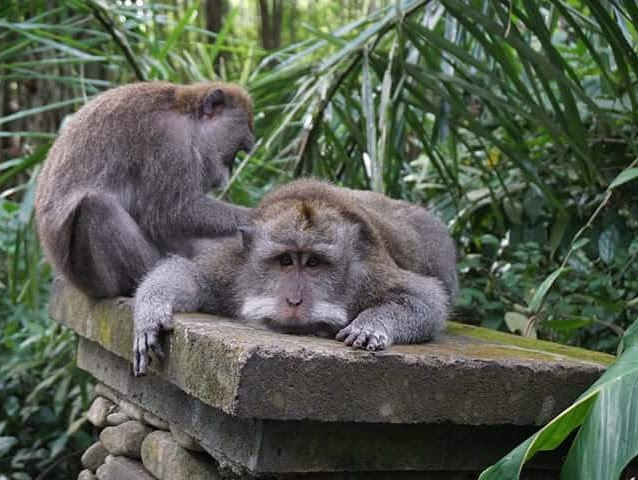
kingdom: Animalia
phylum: Chordata
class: Mammalia
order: Primates
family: Cercopithecidae
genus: Macaca
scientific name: Macaca fascicularis
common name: Crab-eating macaque
